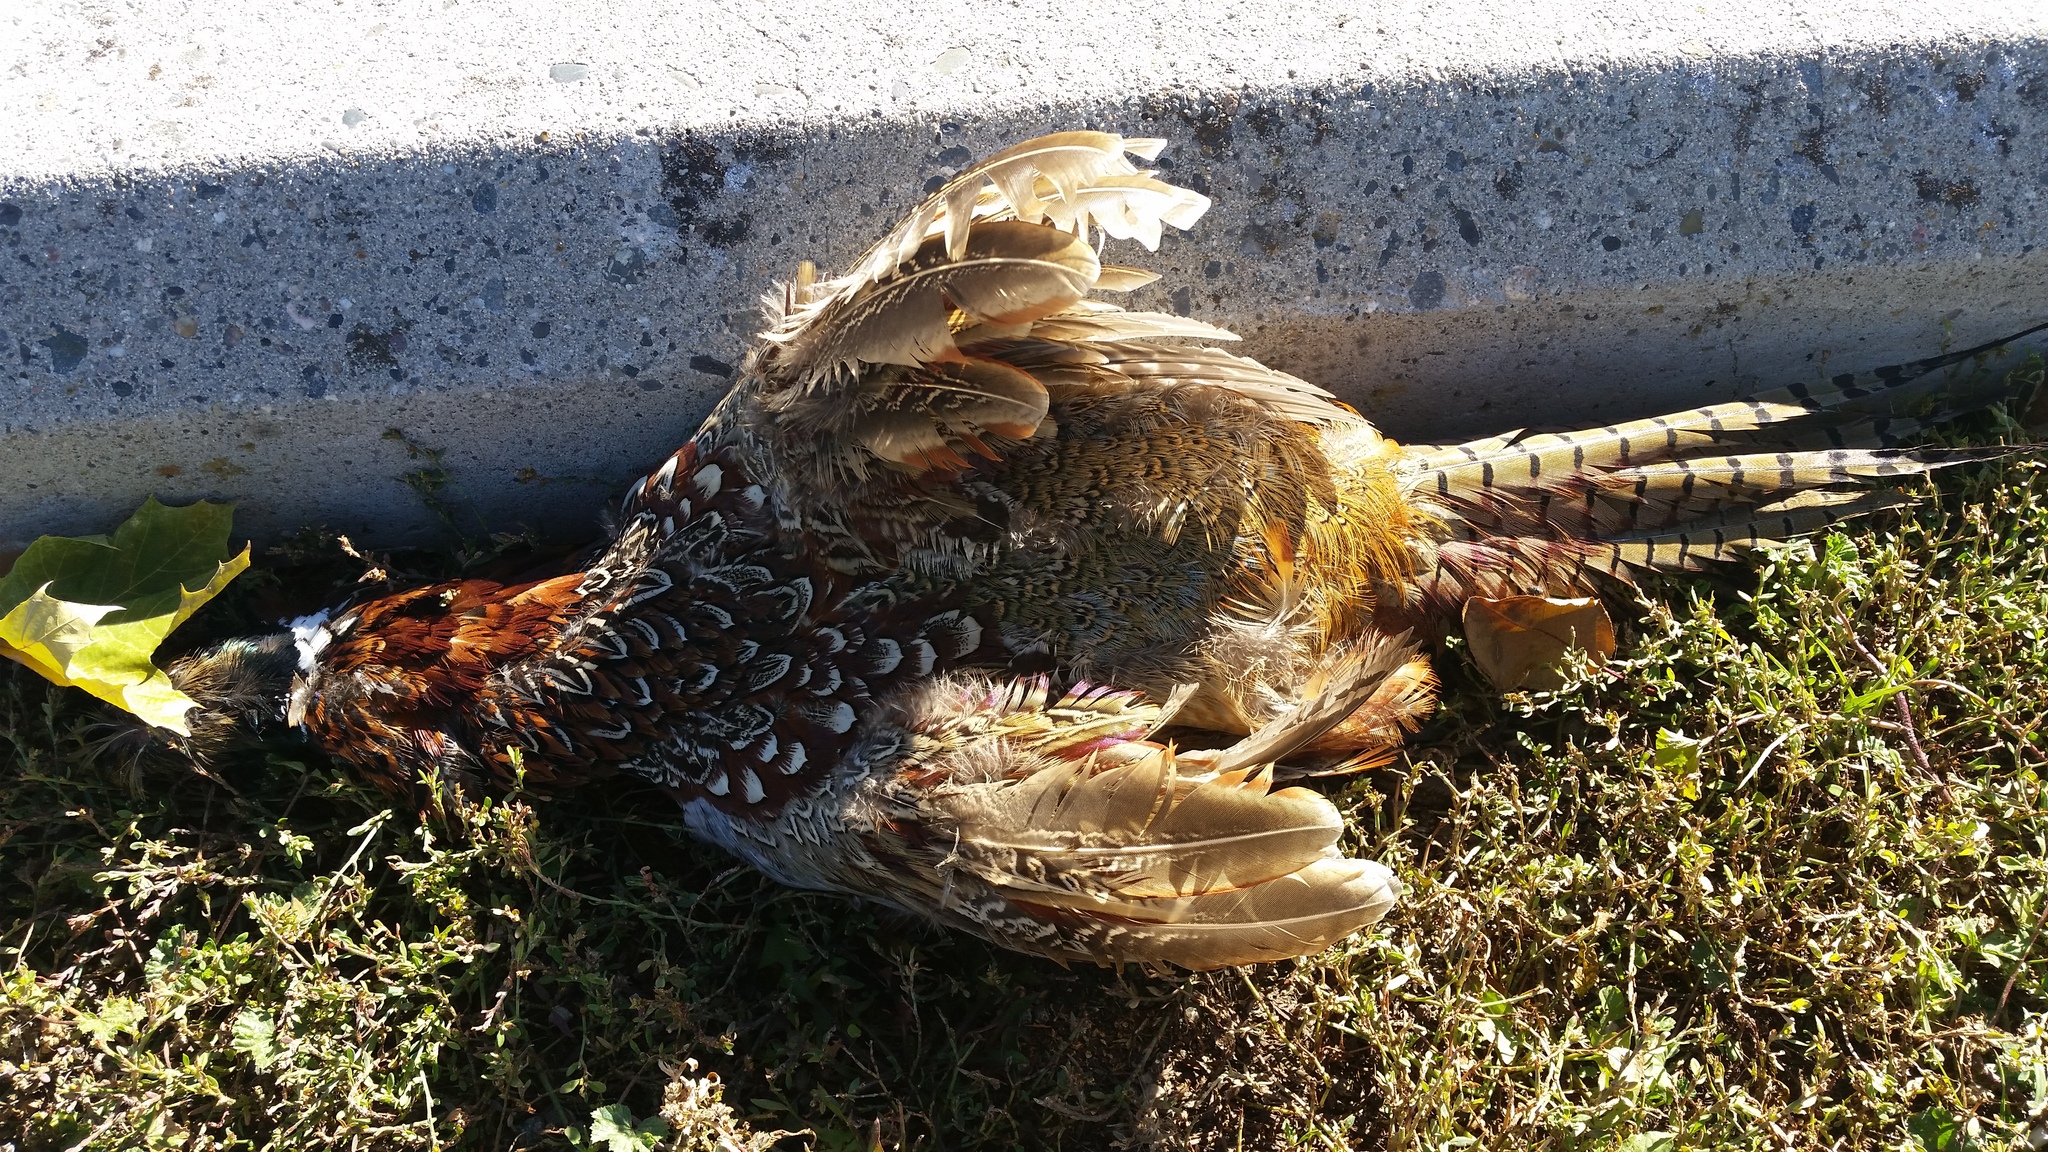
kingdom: Animalia
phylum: Chordata
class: Aves
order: Galliformes
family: Phasianidae
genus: Phasianus
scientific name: Phasianus colchicus
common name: Common pheasant
